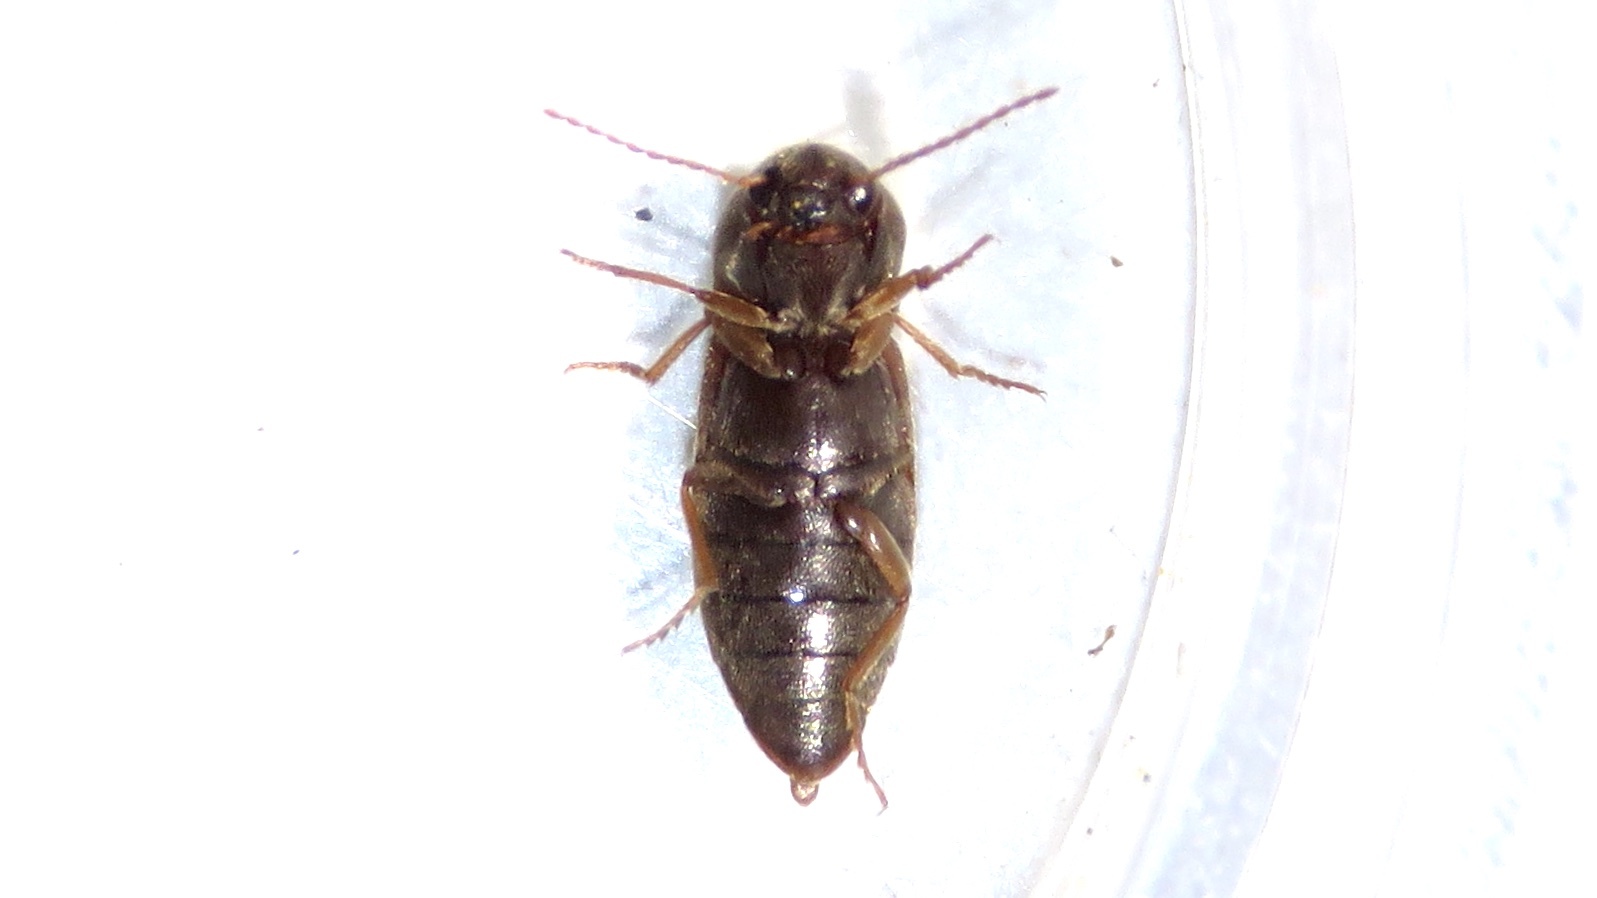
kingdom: Animalia
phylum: Arthropoda
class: Insecta
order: Coleoptera
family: Elateridae
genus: Agriotes
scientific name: Agriotes mancus
